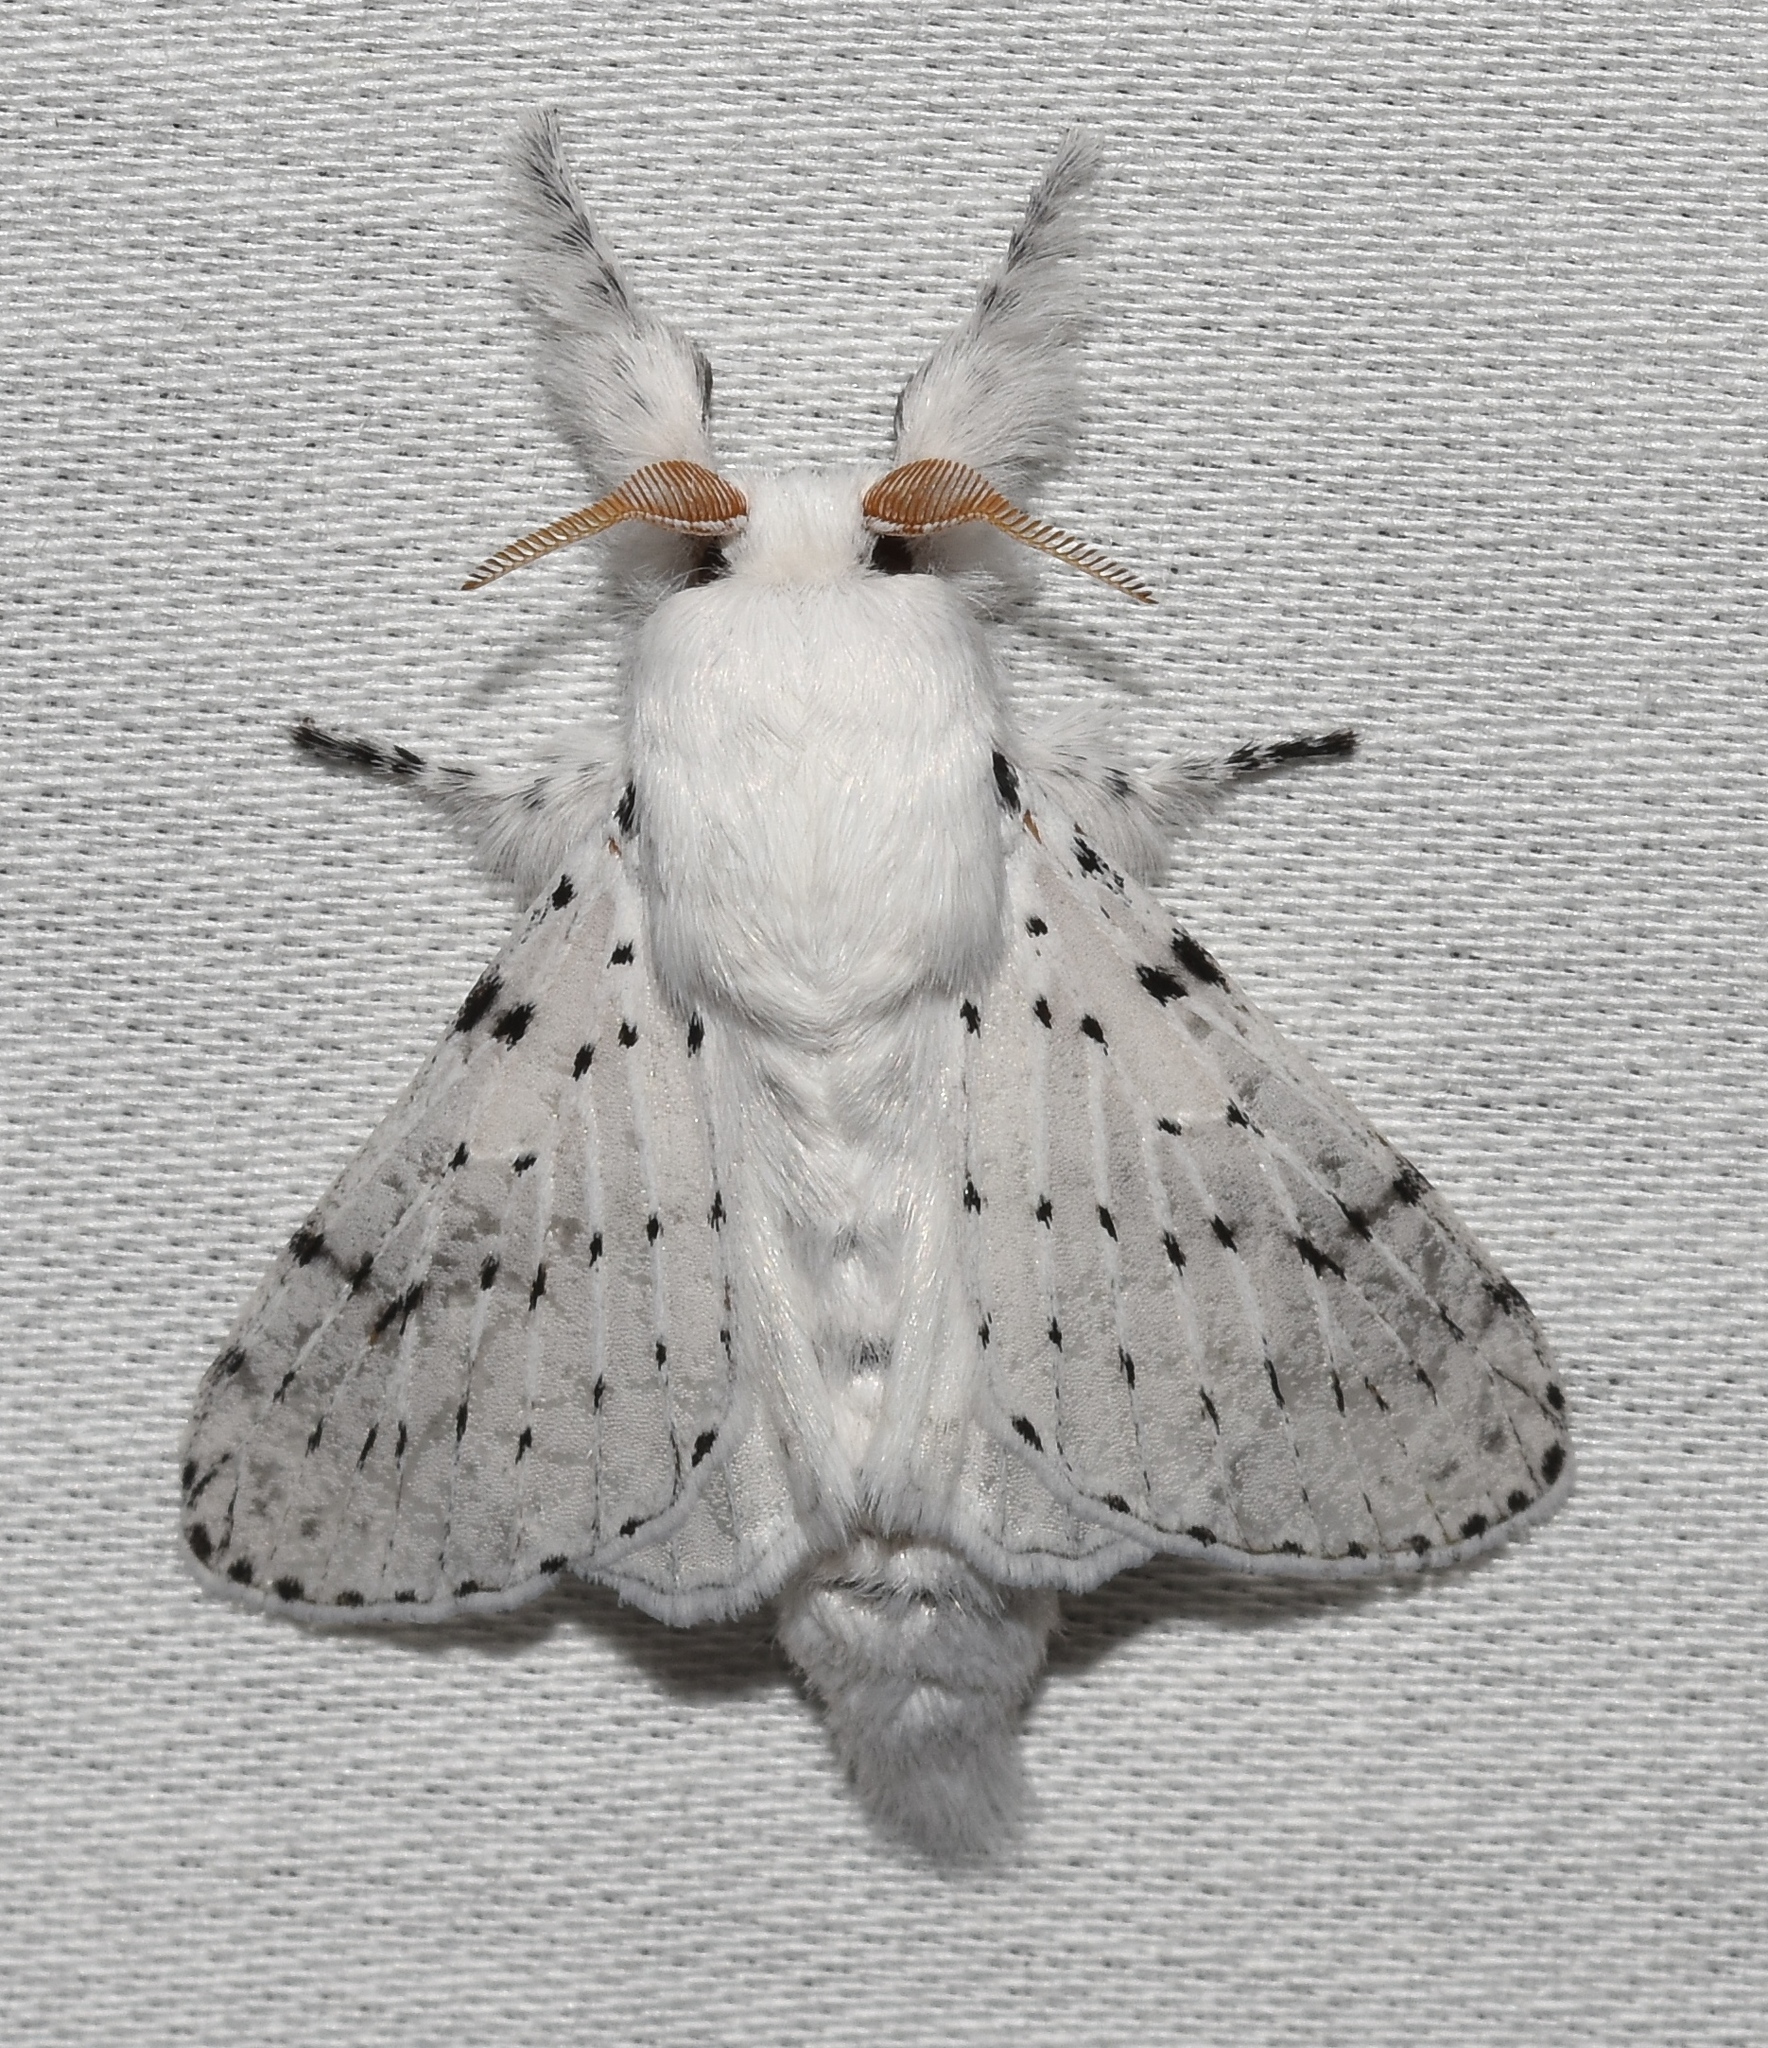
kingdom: Animalia
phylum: Arthropoda
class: Insecta
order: Lepidoptera
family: Lasiocampidae
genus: Artace
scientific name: Artace cribrarius
